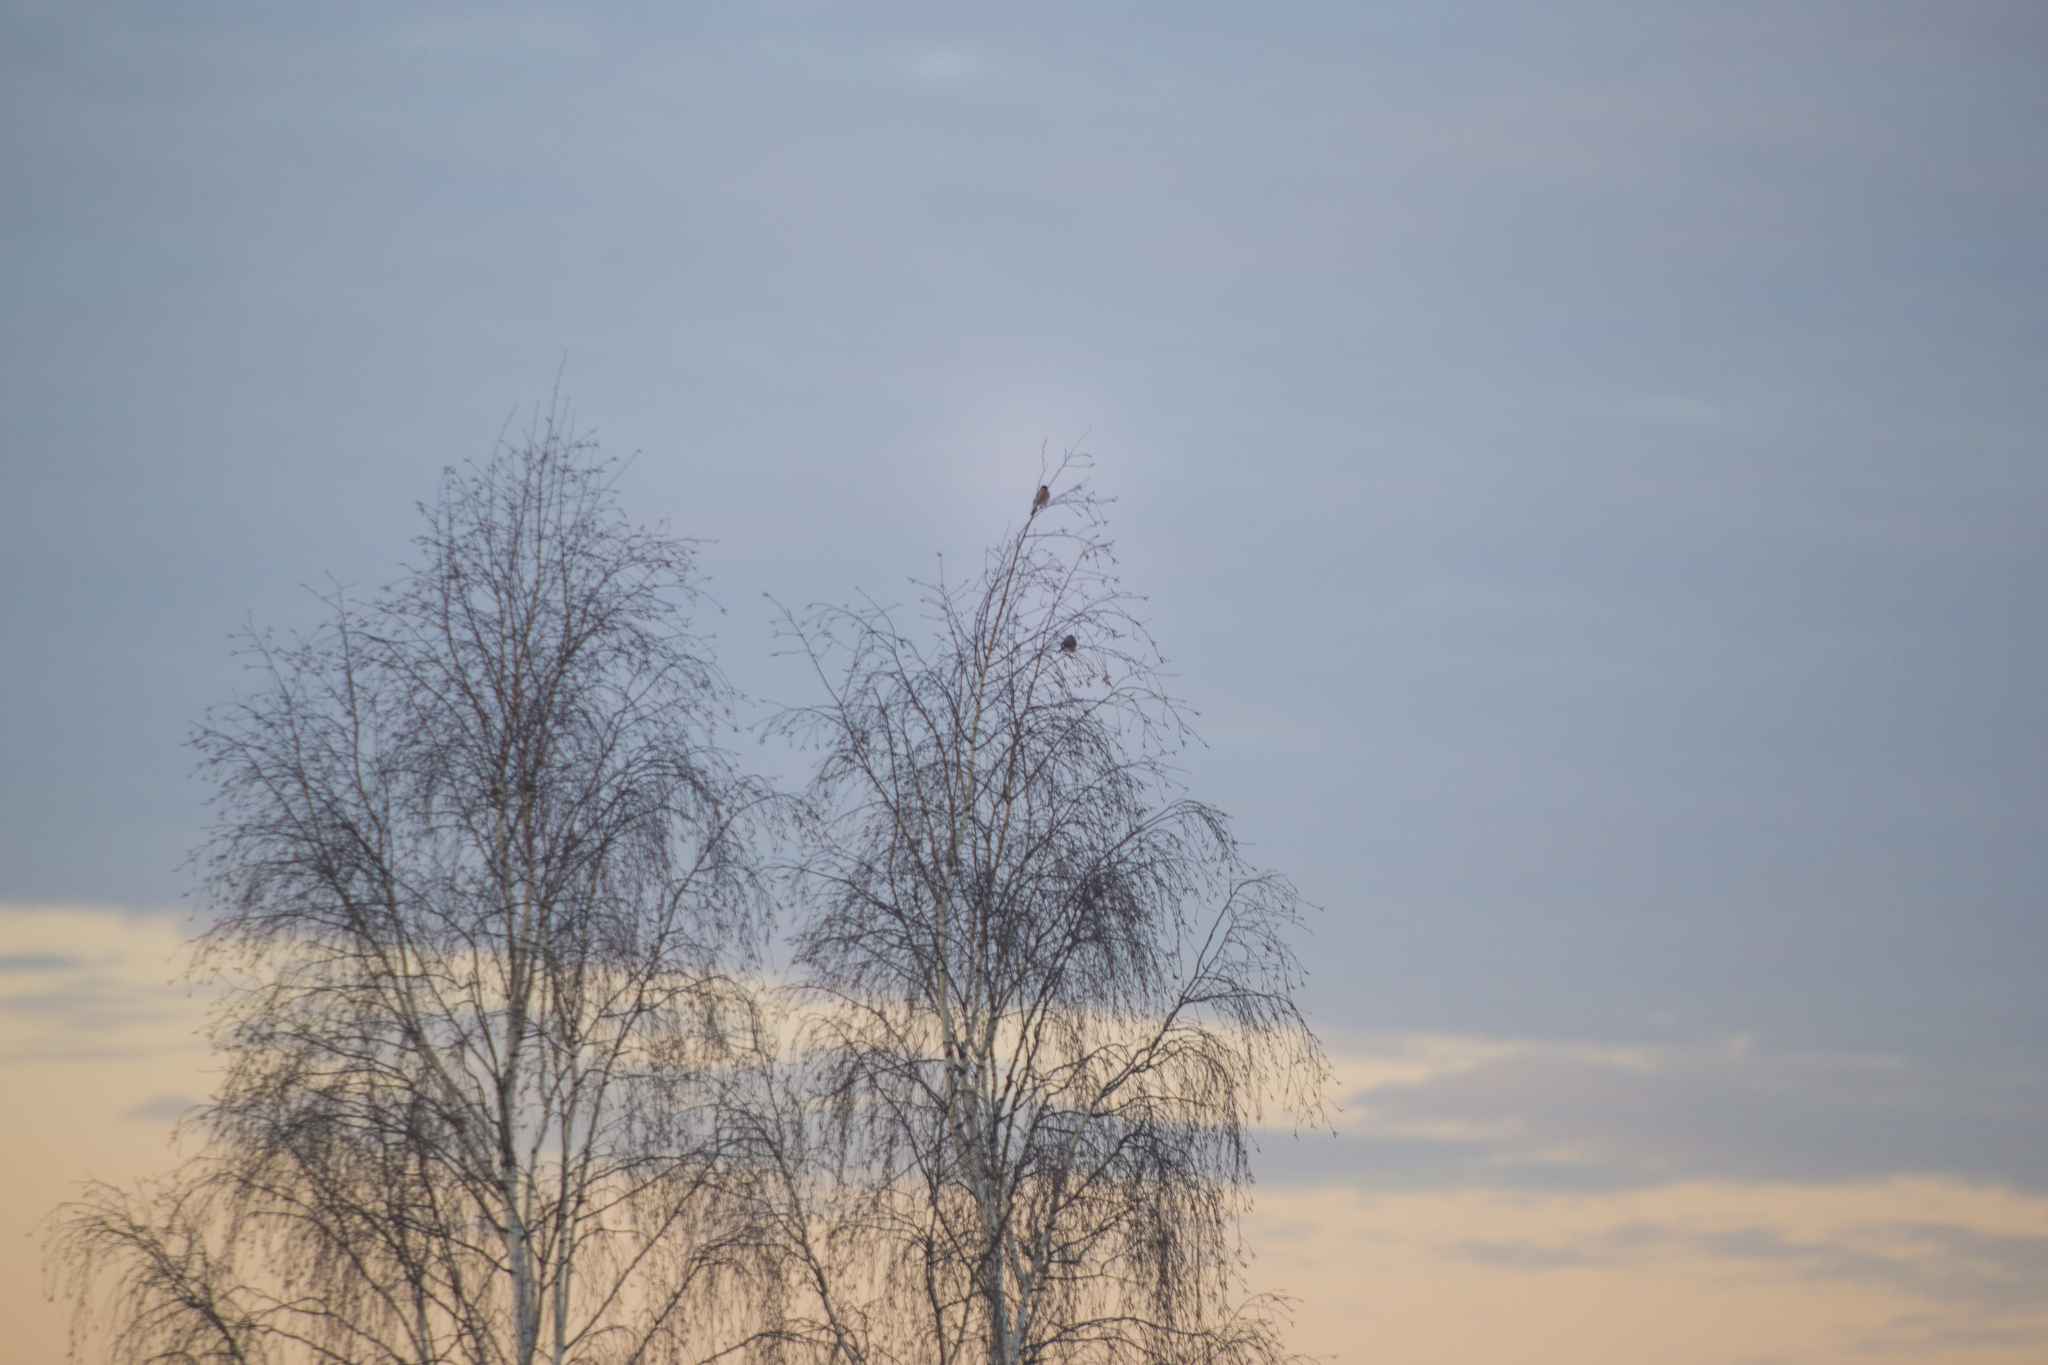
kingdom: Animalia
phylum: Chordata
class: Aves
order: Passeriformes
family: Fringillidae
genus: Pyrrhula
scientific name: Pyrrhula pyrrhula
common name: Eurasian bullfinch
